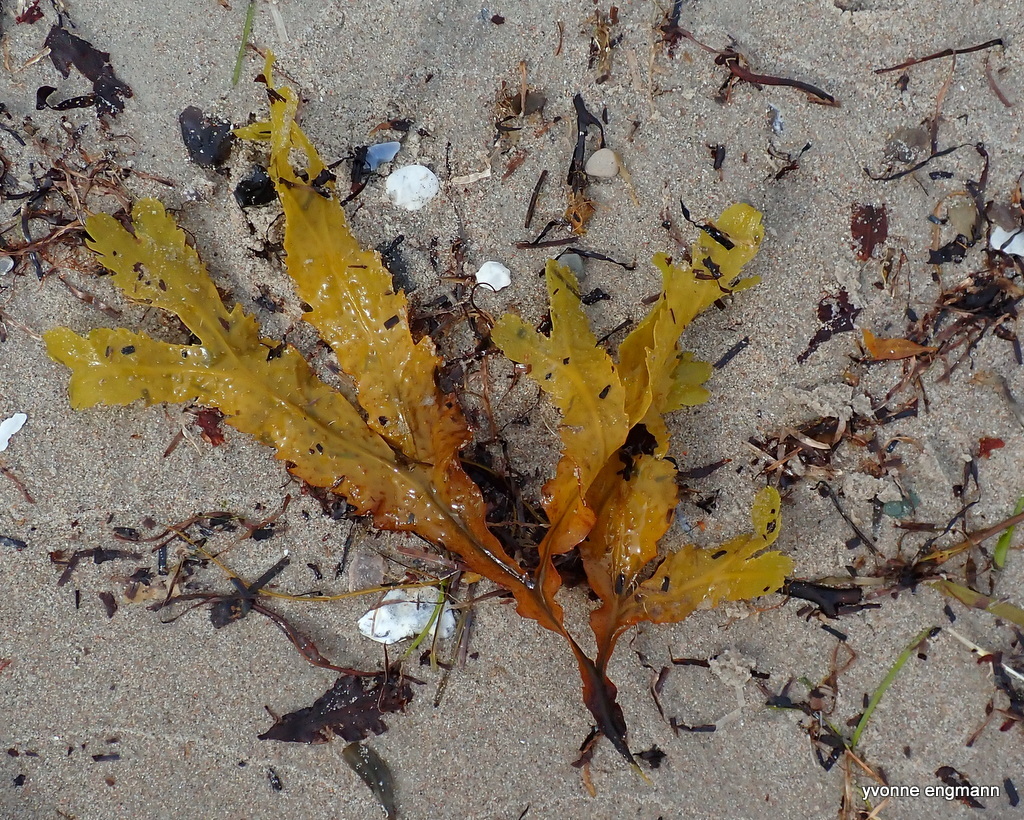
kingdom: Chromista
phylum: Ochrophyta
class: Phaeophyceae
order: Fucales
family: Fucaceae
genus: Fucus
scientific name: Fucus serratus
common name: Toothed wrack
